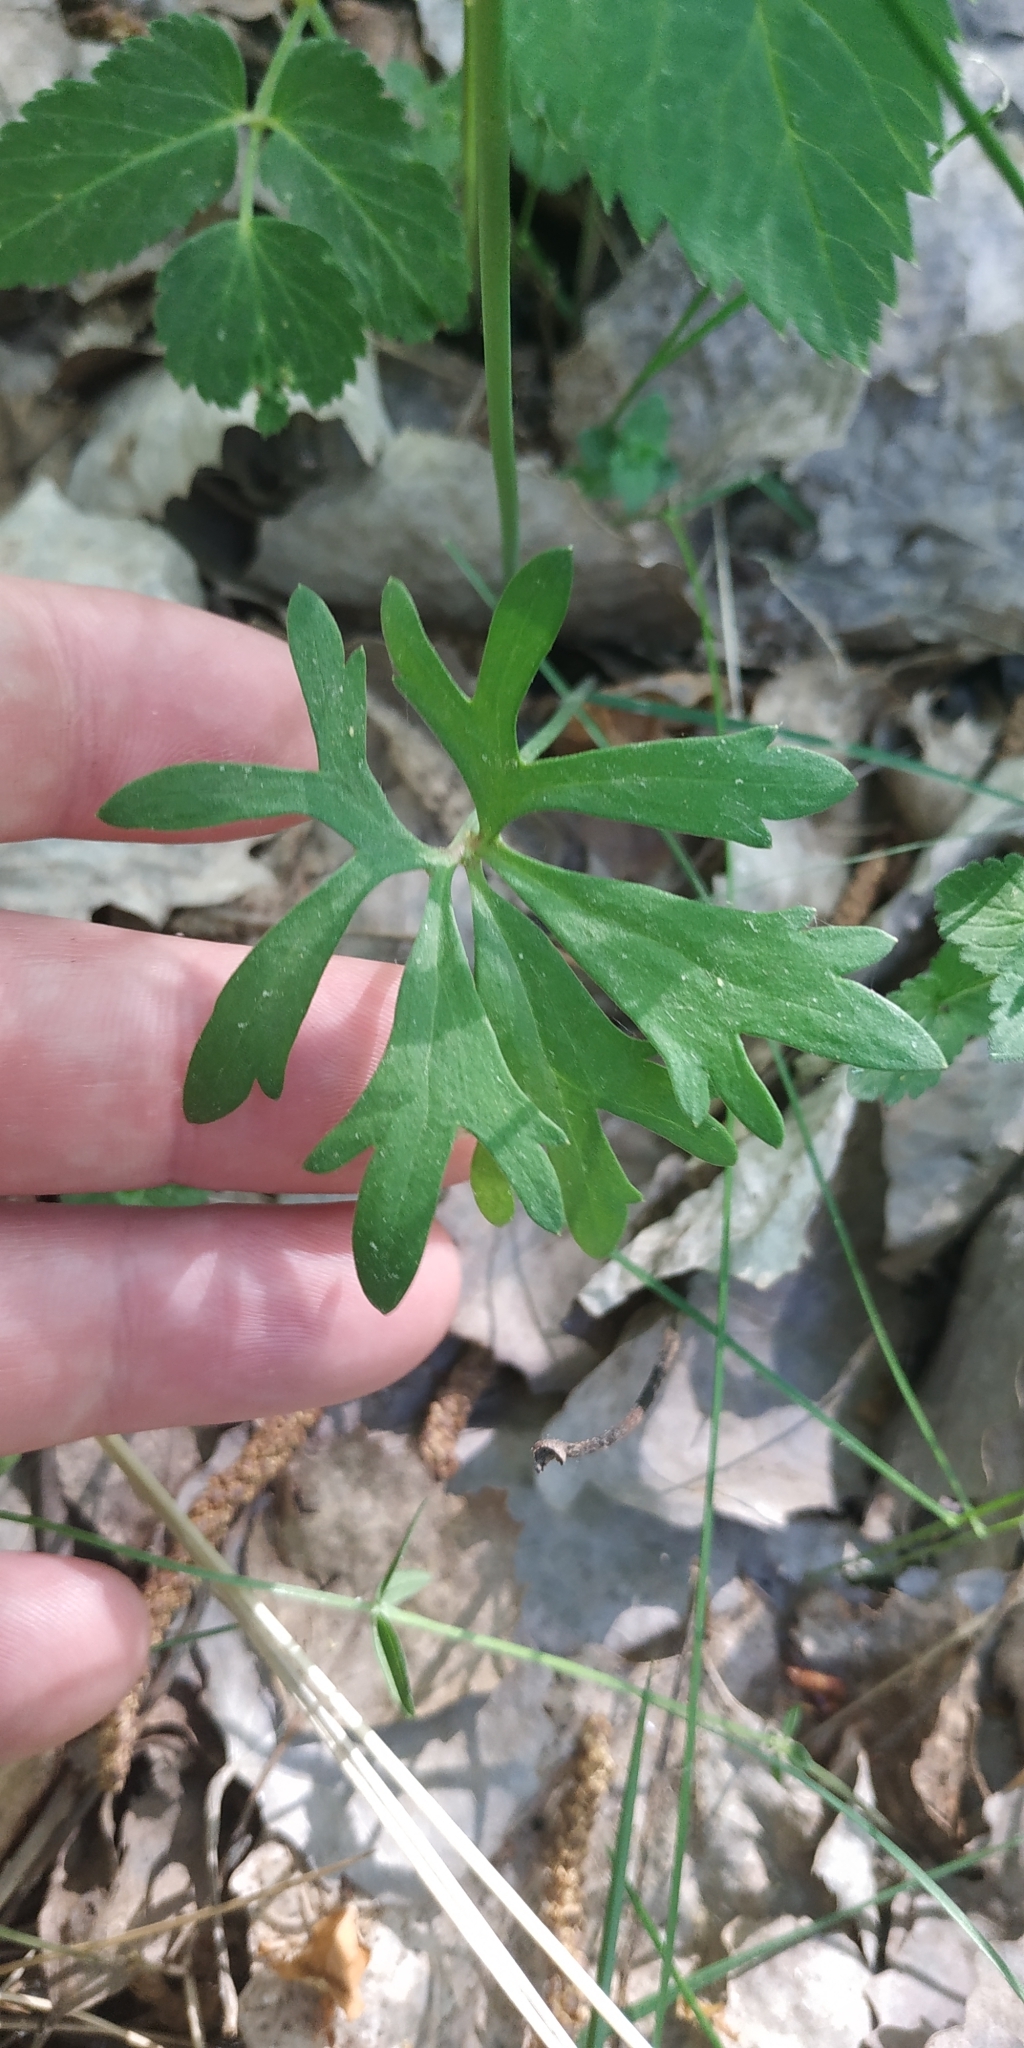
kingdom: Plantae
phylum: Tracheophyta
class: Magnoliopsida
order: Ranunculales
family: Ranunculaceae
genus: Ranunculus
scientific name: Ranunculus auricomus
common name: Goldilocks buttercup
